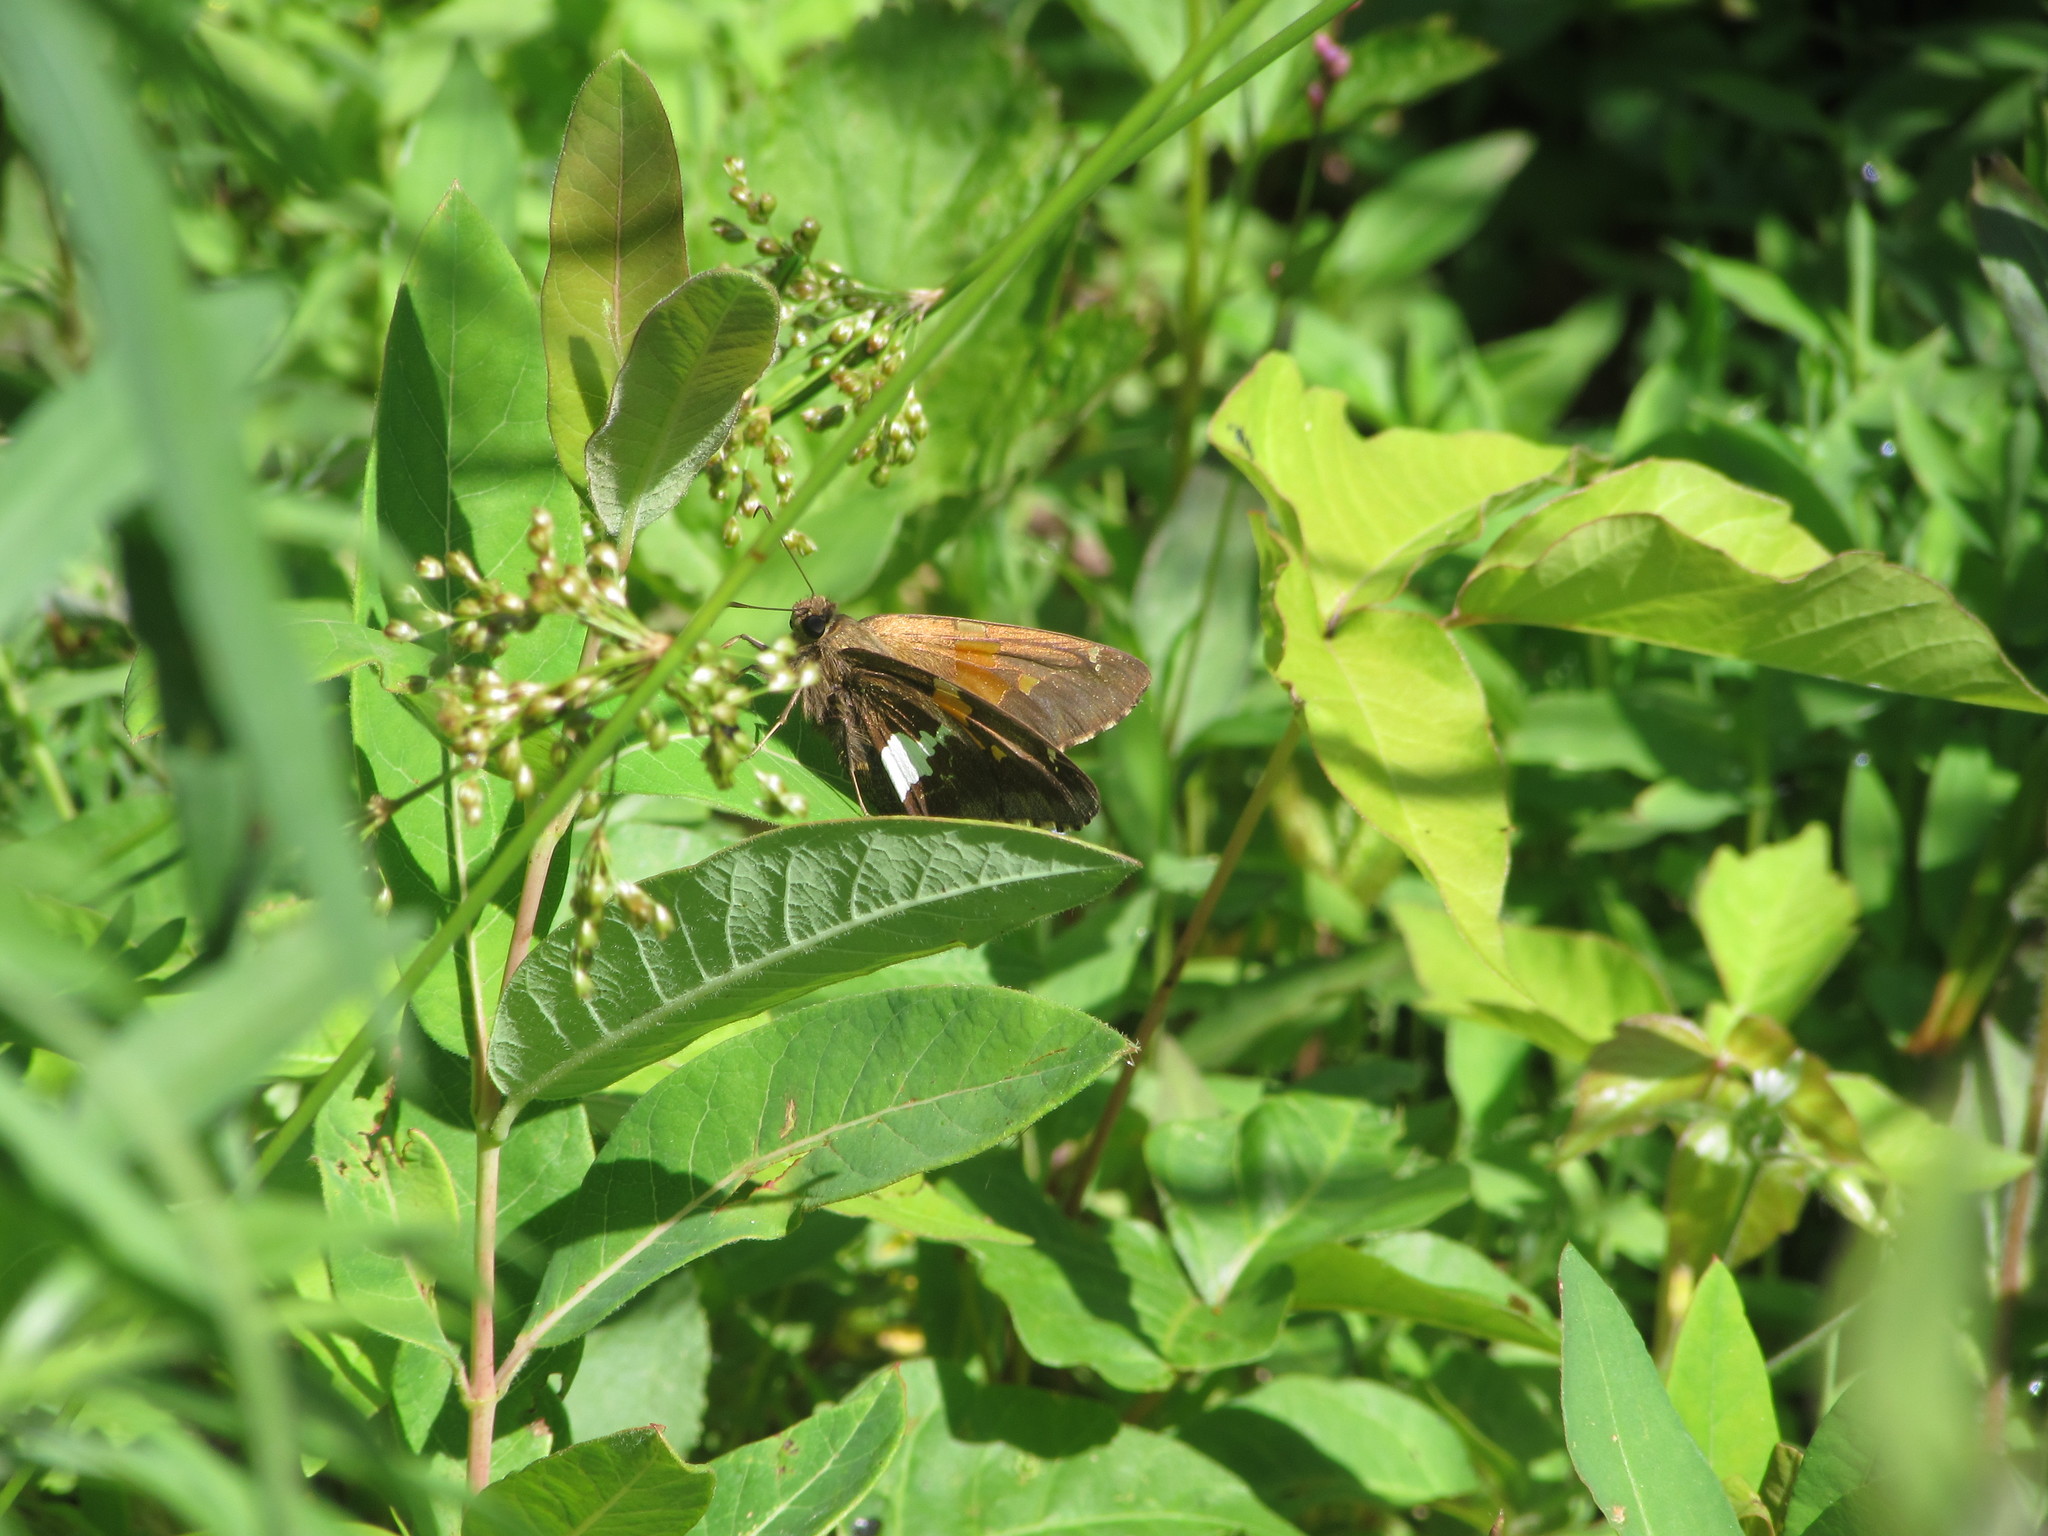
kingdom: Animalia
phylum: Arthropoda
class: Insecta
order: Lepidoptera
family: Hesperiidae
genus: Epargyreus
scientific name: Epargyreus clarus
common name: Silver-spotted skipper
